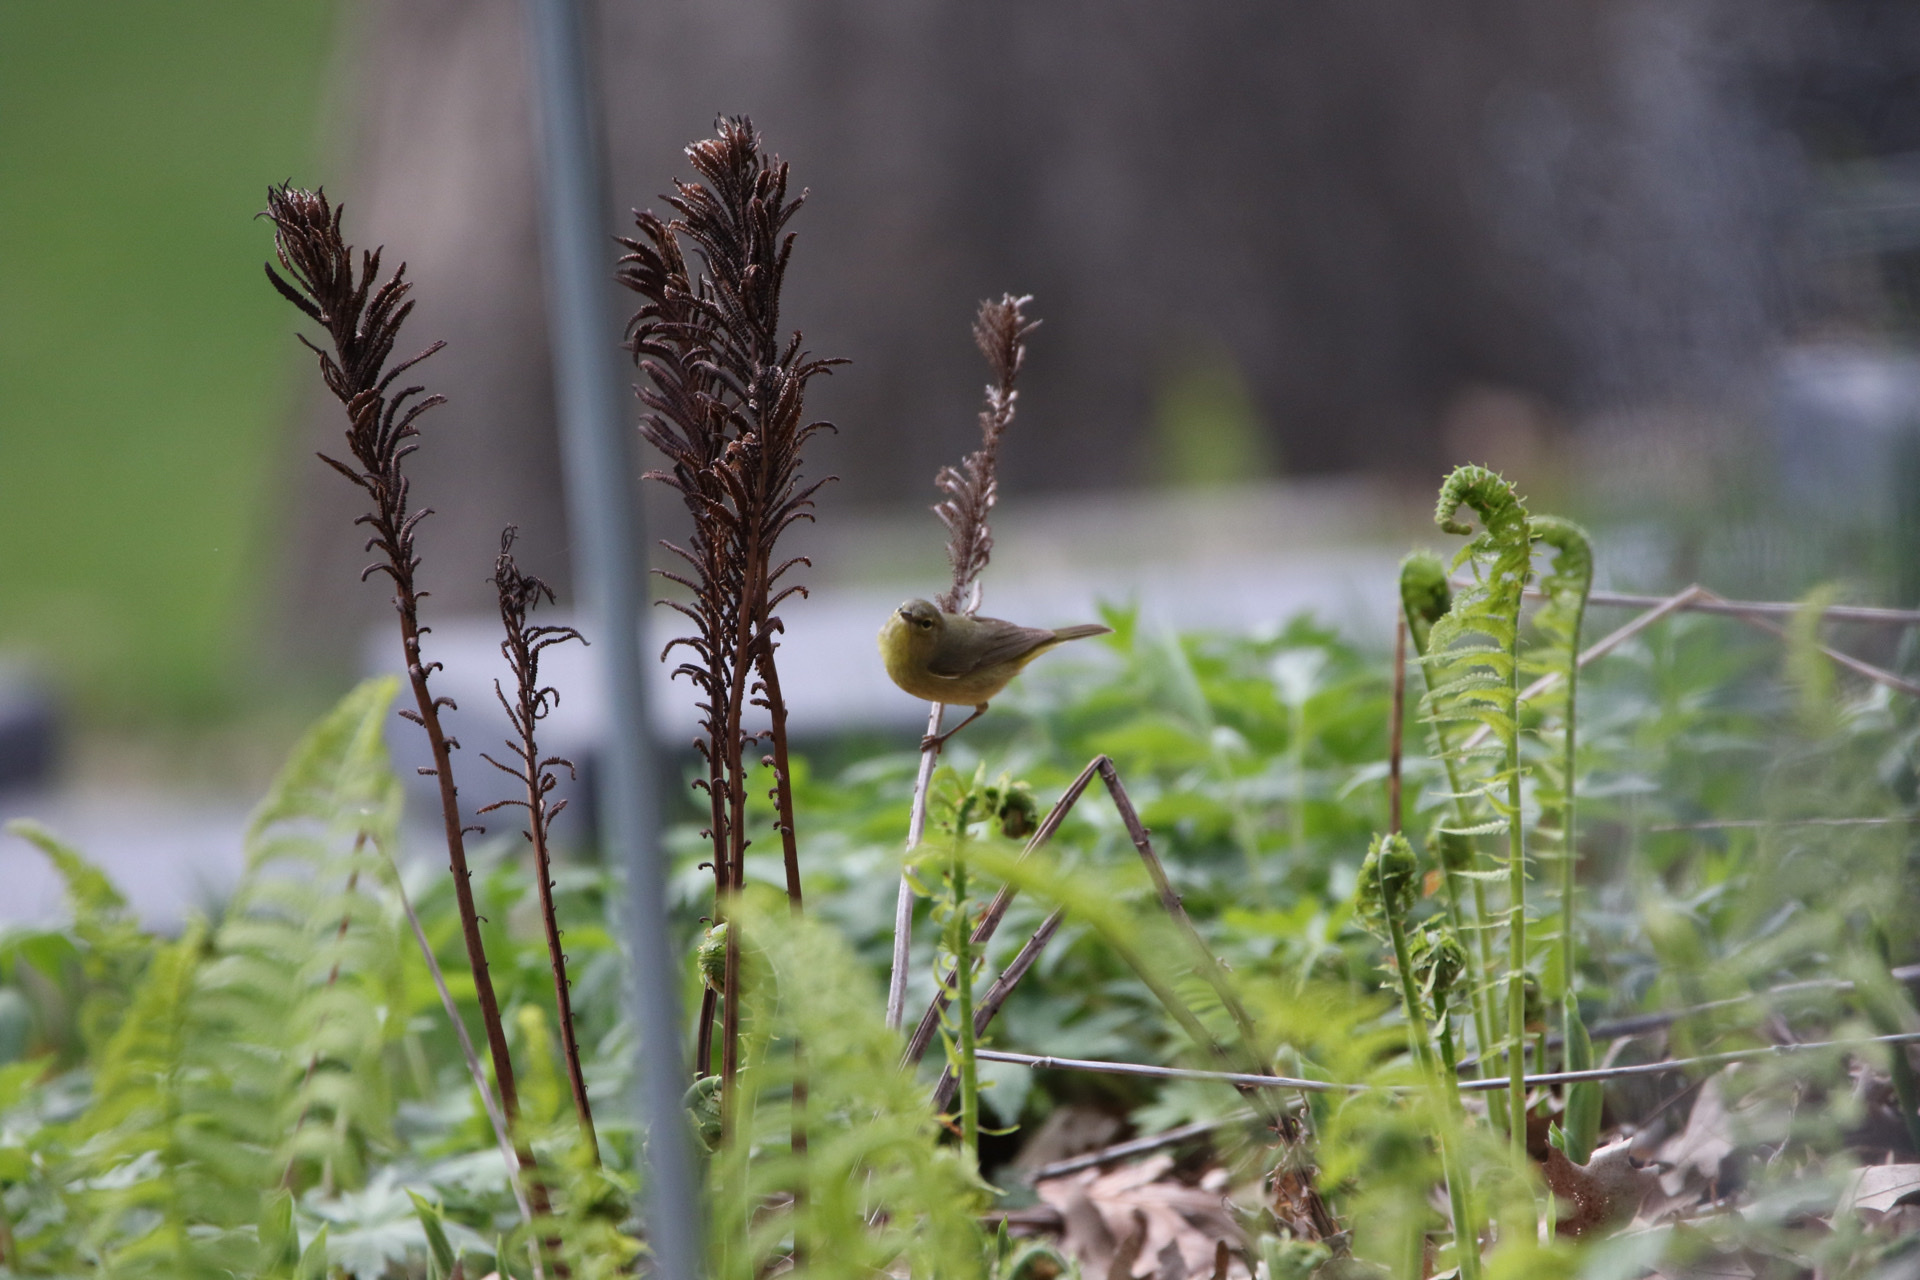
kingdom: Animalia
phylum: Chordata
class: Aves
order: Passeriformes
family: Parulidae
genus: Leiothlypis
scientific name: Leiothlypis celata
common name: Orange-crowned warbler
